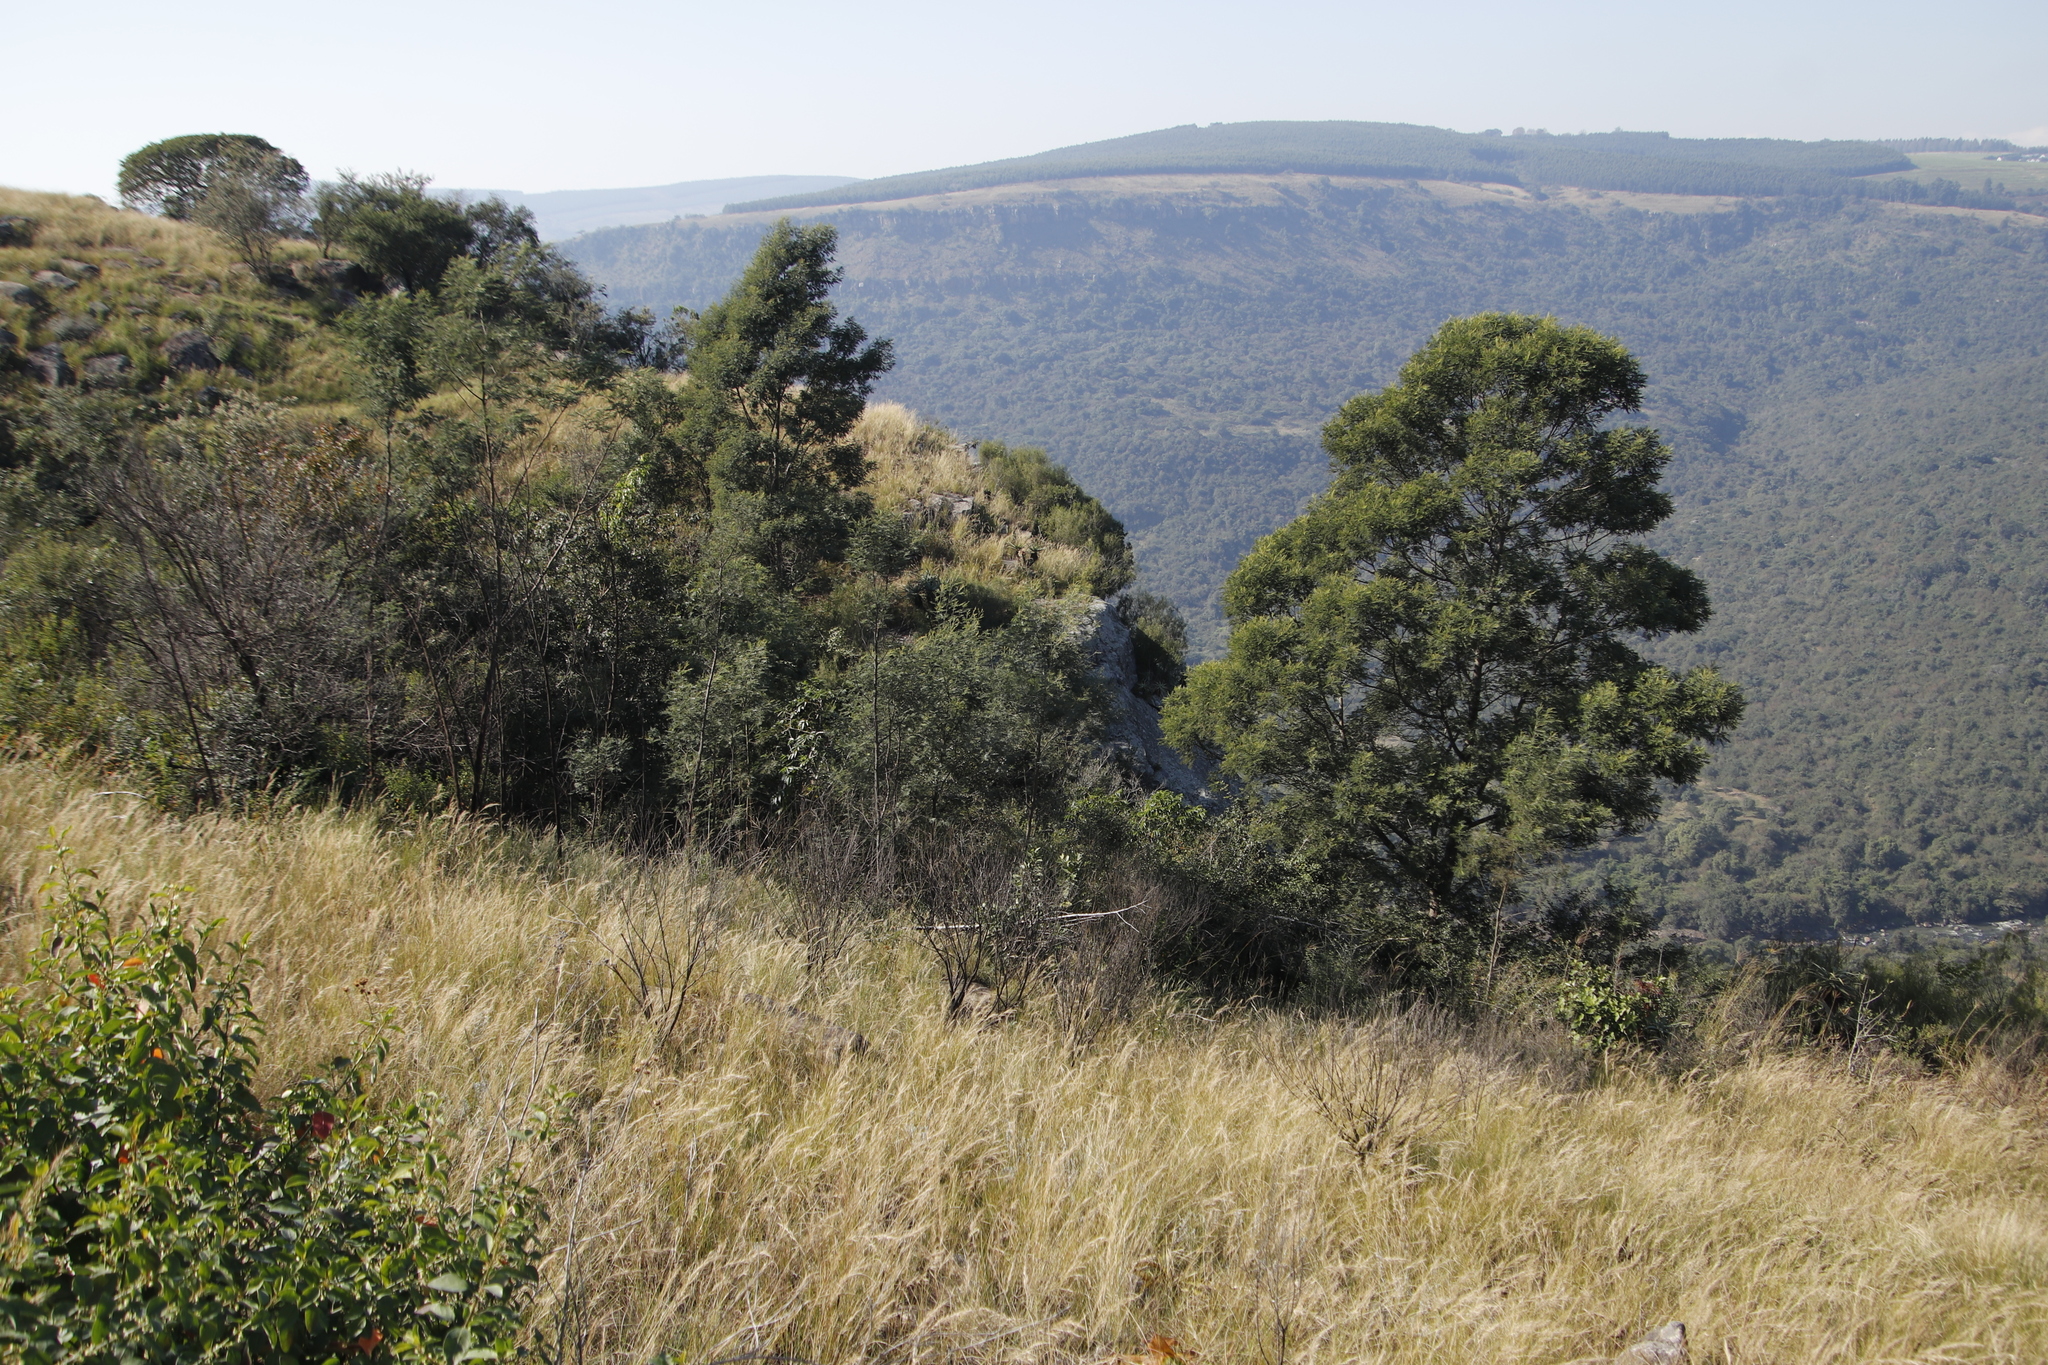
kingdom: Plantae
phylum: Tracheophyta
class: Magnoliopsida
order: Fabales
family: Fabaceae
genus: Acacia
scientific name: Acacia mearnsii
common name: Black wattle
